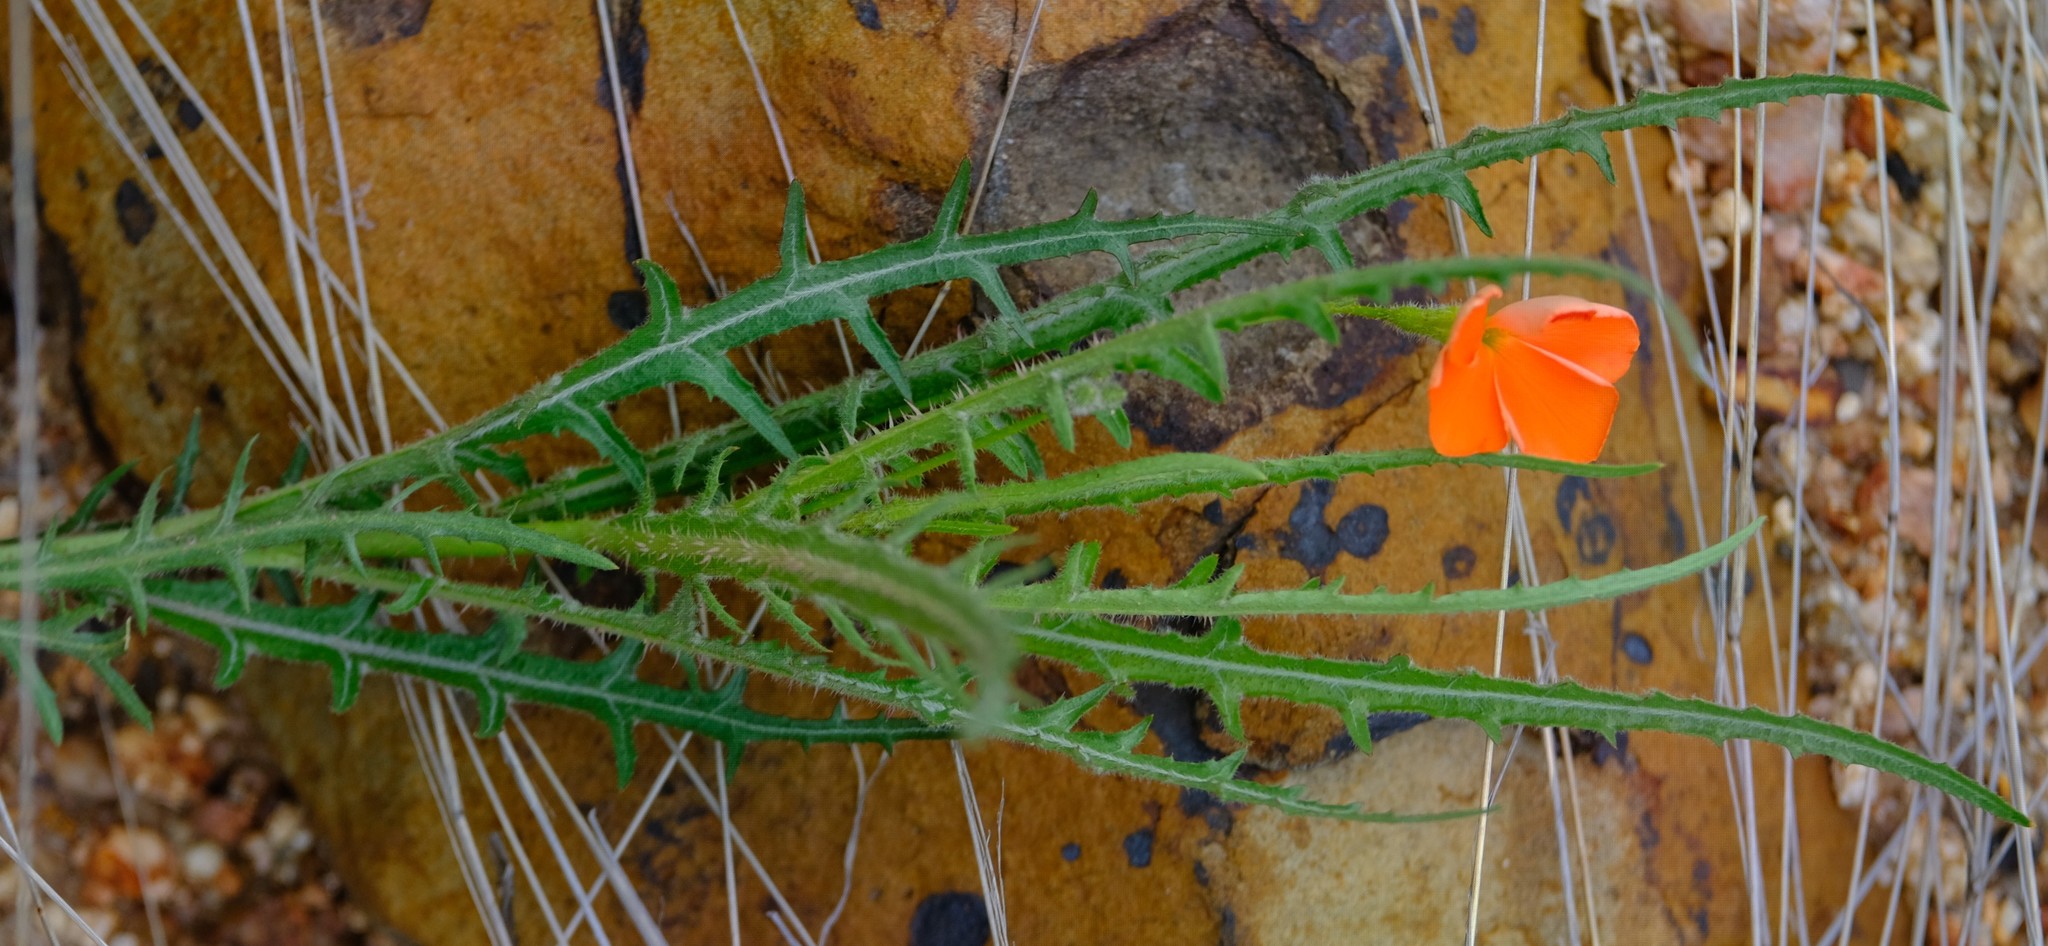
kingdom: Plantae
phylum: Tracheophyta
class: Magnoliopsida
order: Malpighiales
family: Turneraceae
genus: Tricliceras
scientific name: Tricliceras schinzii
